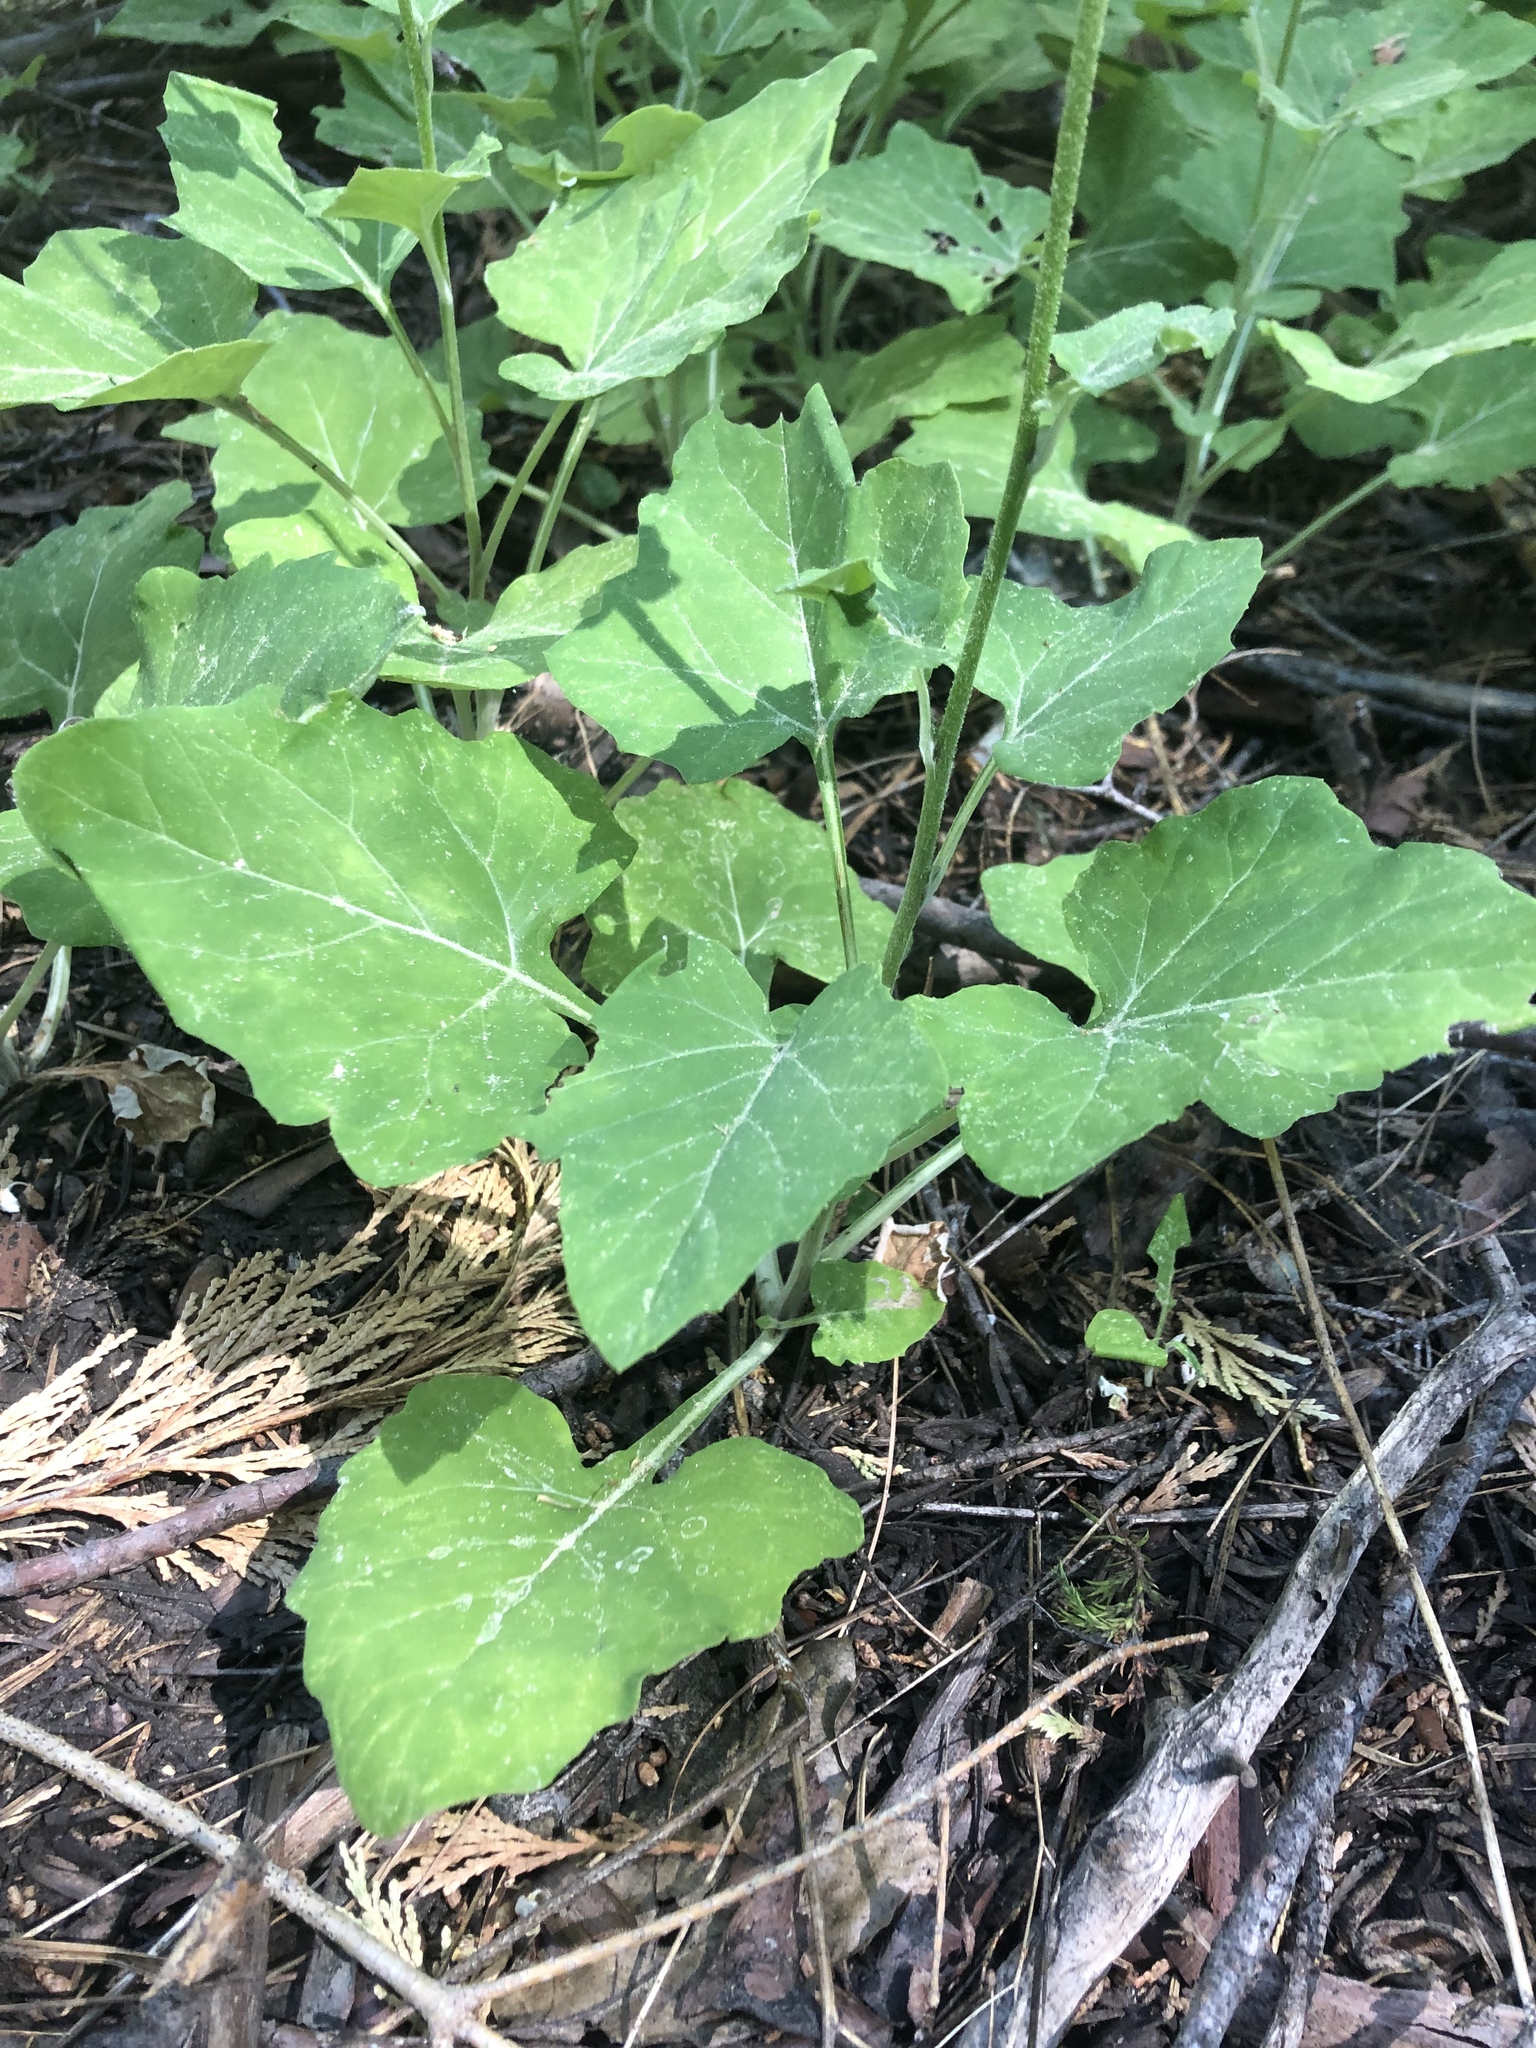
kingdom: Plantae
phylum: Tracheophyta
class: Magnoliopsida
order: Asterales
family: Asteraceae
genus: Adenocaulon
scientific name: Adenocaulon bicolor
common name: Trailplant
